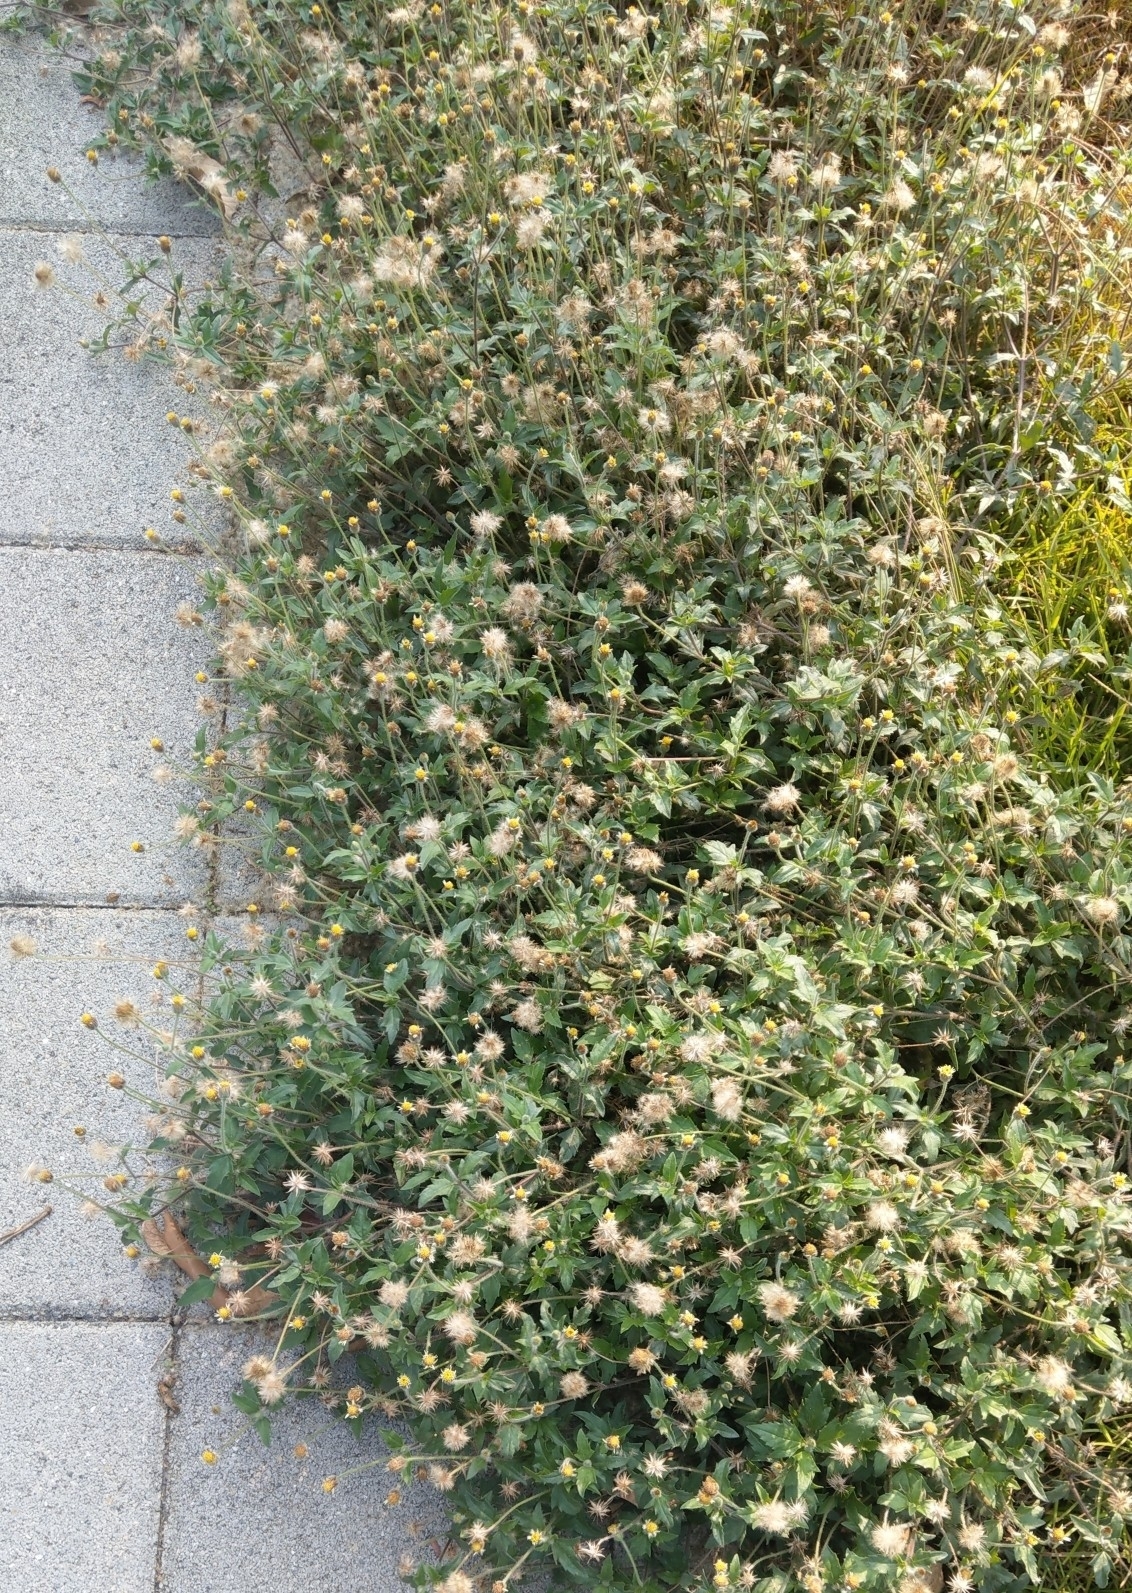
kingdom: Plantae
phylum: Tracheophyta
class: Magnoliopsida
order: Asterales
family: Asteraceae
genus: Tridax
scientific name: Tridax procumbens
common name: Coatbuttons
